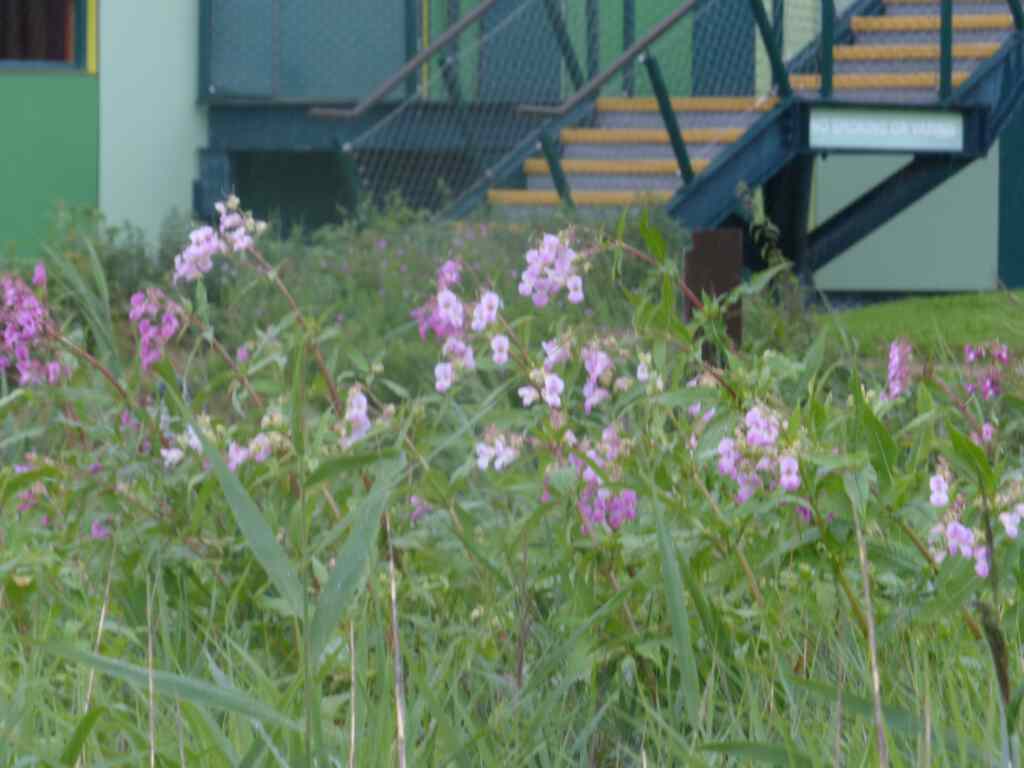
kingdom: Plantae
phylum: Tracheophyta
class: Magnoliopsida
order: Ericales
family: Balsaminaceae
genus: Impatiens
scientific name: Impatiens glandulifera
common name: Himalayan balsam
